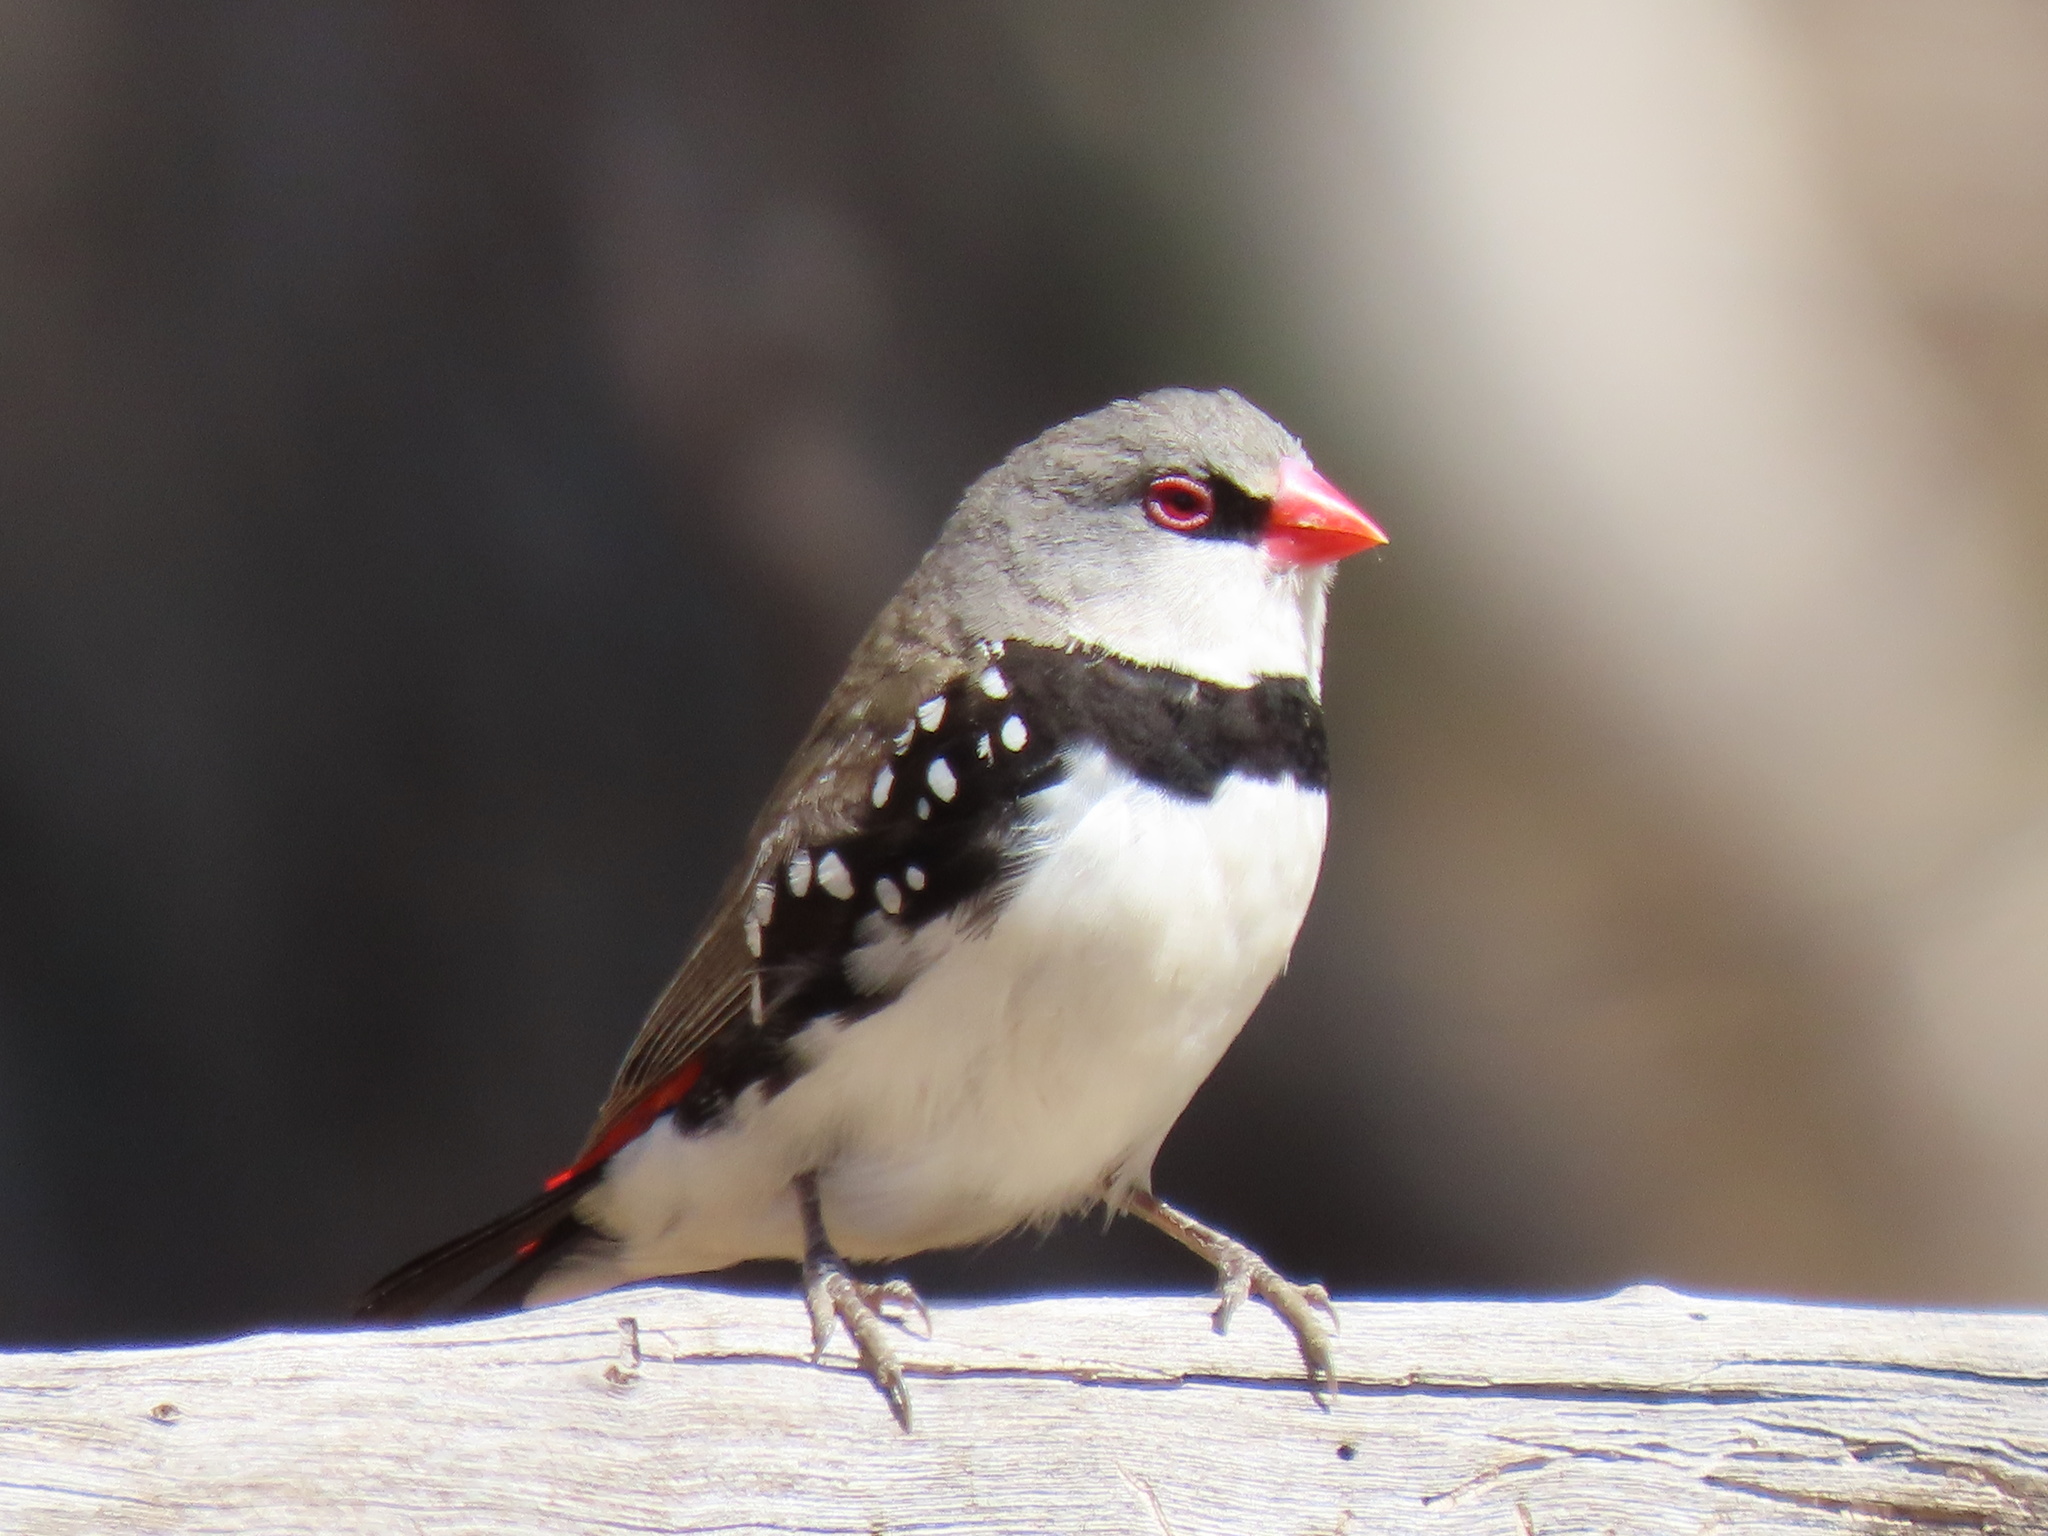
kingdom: Animalia
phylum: Chordata
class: Aves
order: Passeriformes
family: Estrildidae
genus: Stagonopleura
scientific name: Stagonopleura guttata
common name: Diamond firetail
